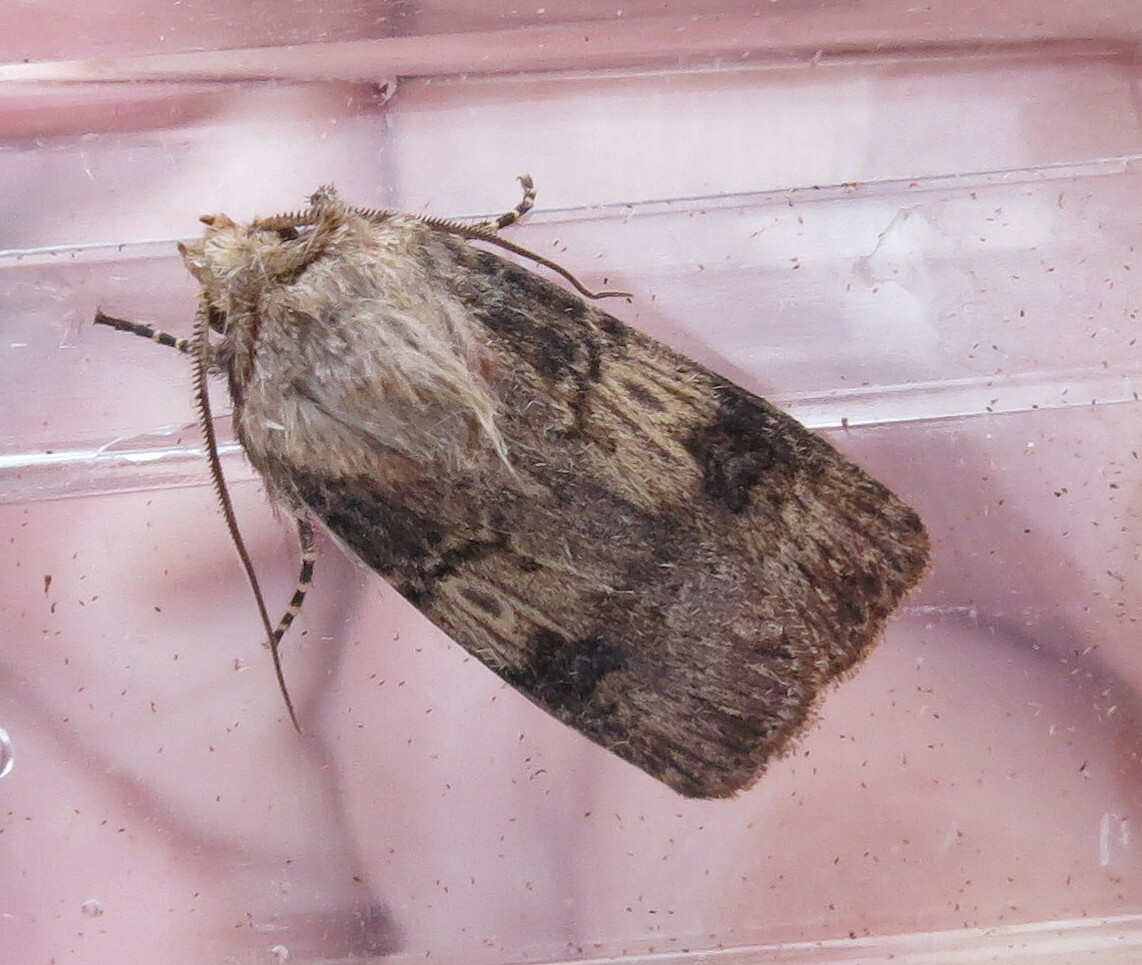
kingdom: Animalia
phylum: Arthropoda
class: Insecta
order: Lepidoptera
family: Noctuidae
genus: Agrotis
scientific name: Agrotis puta
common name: Shuttle-shaped dart
